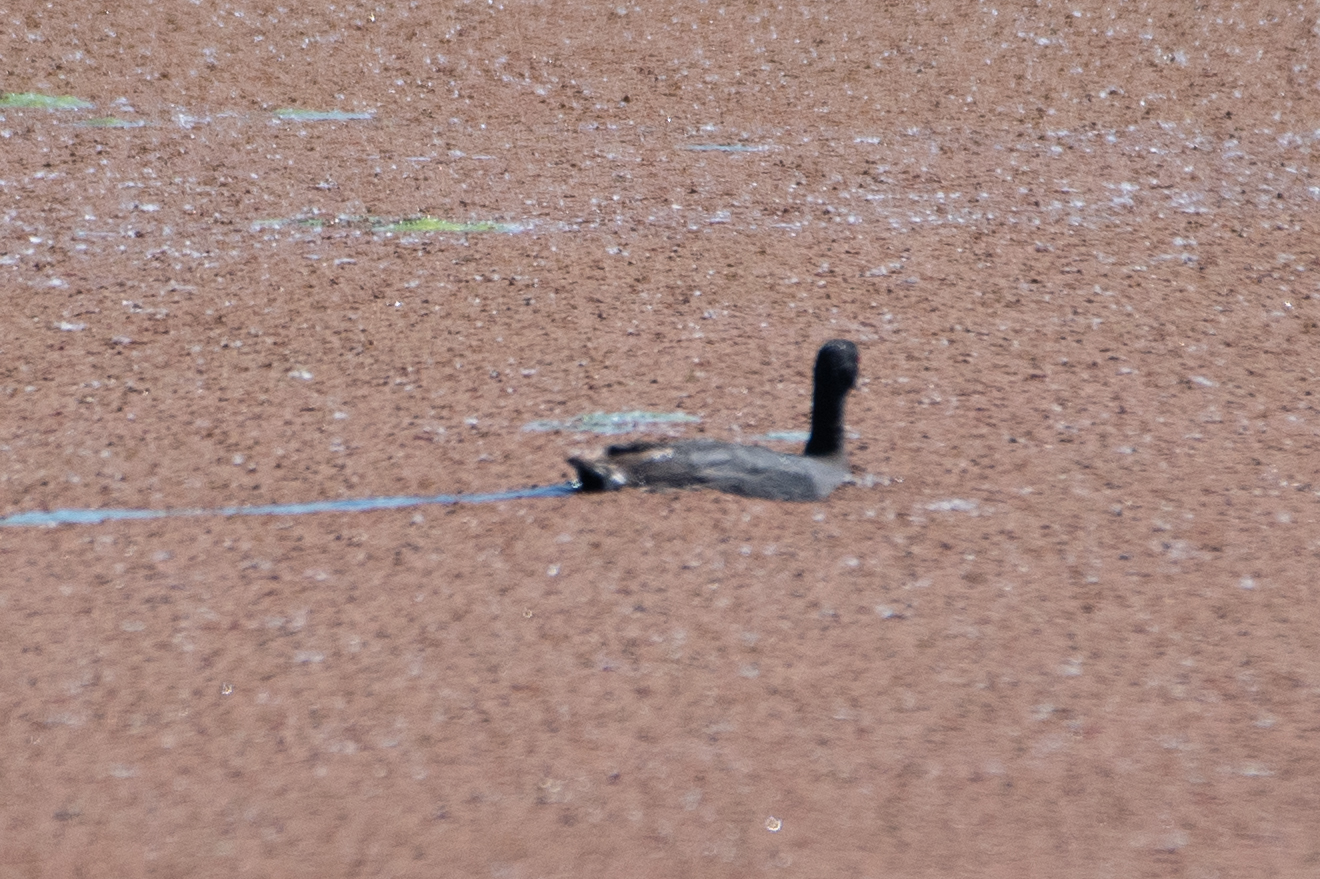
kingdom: Animalia
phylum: Chordata
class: Aves
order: Anseriformes
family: Anatidae
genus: Anas
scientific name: Anas platyrhynchos
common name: Mallard
